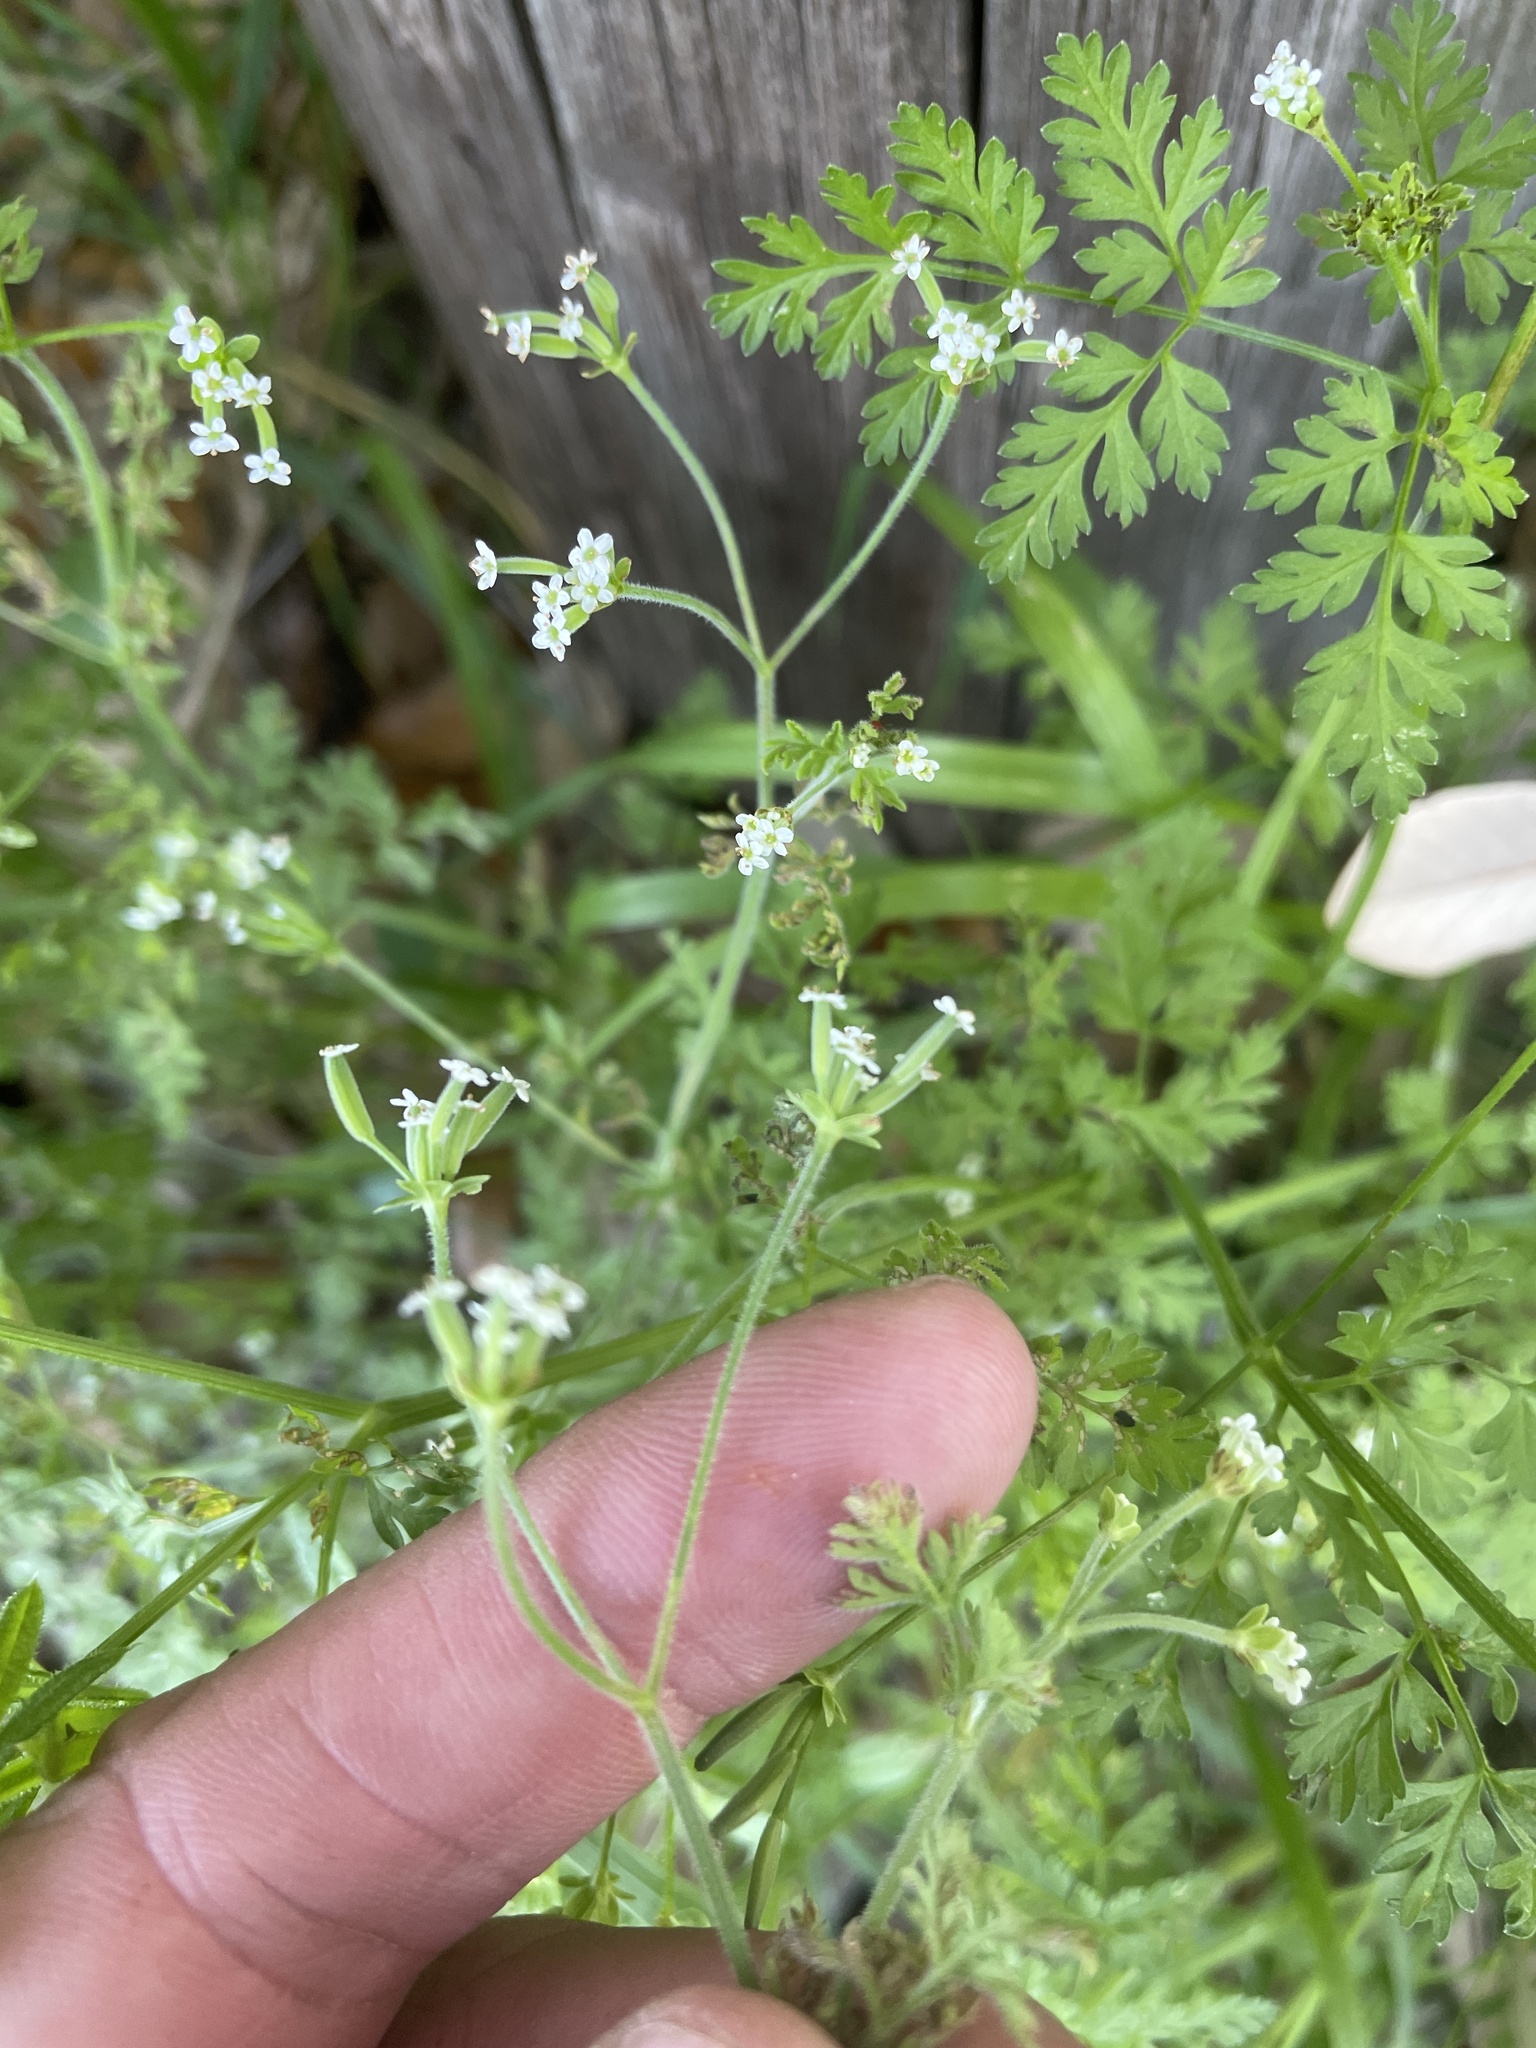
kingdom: Plantae
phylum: Tracheophyta
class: Magnoliopsida
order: Apiales
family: Apiaceae
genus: Chaerophyllum
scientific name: Chaerophyllum tainturieri
